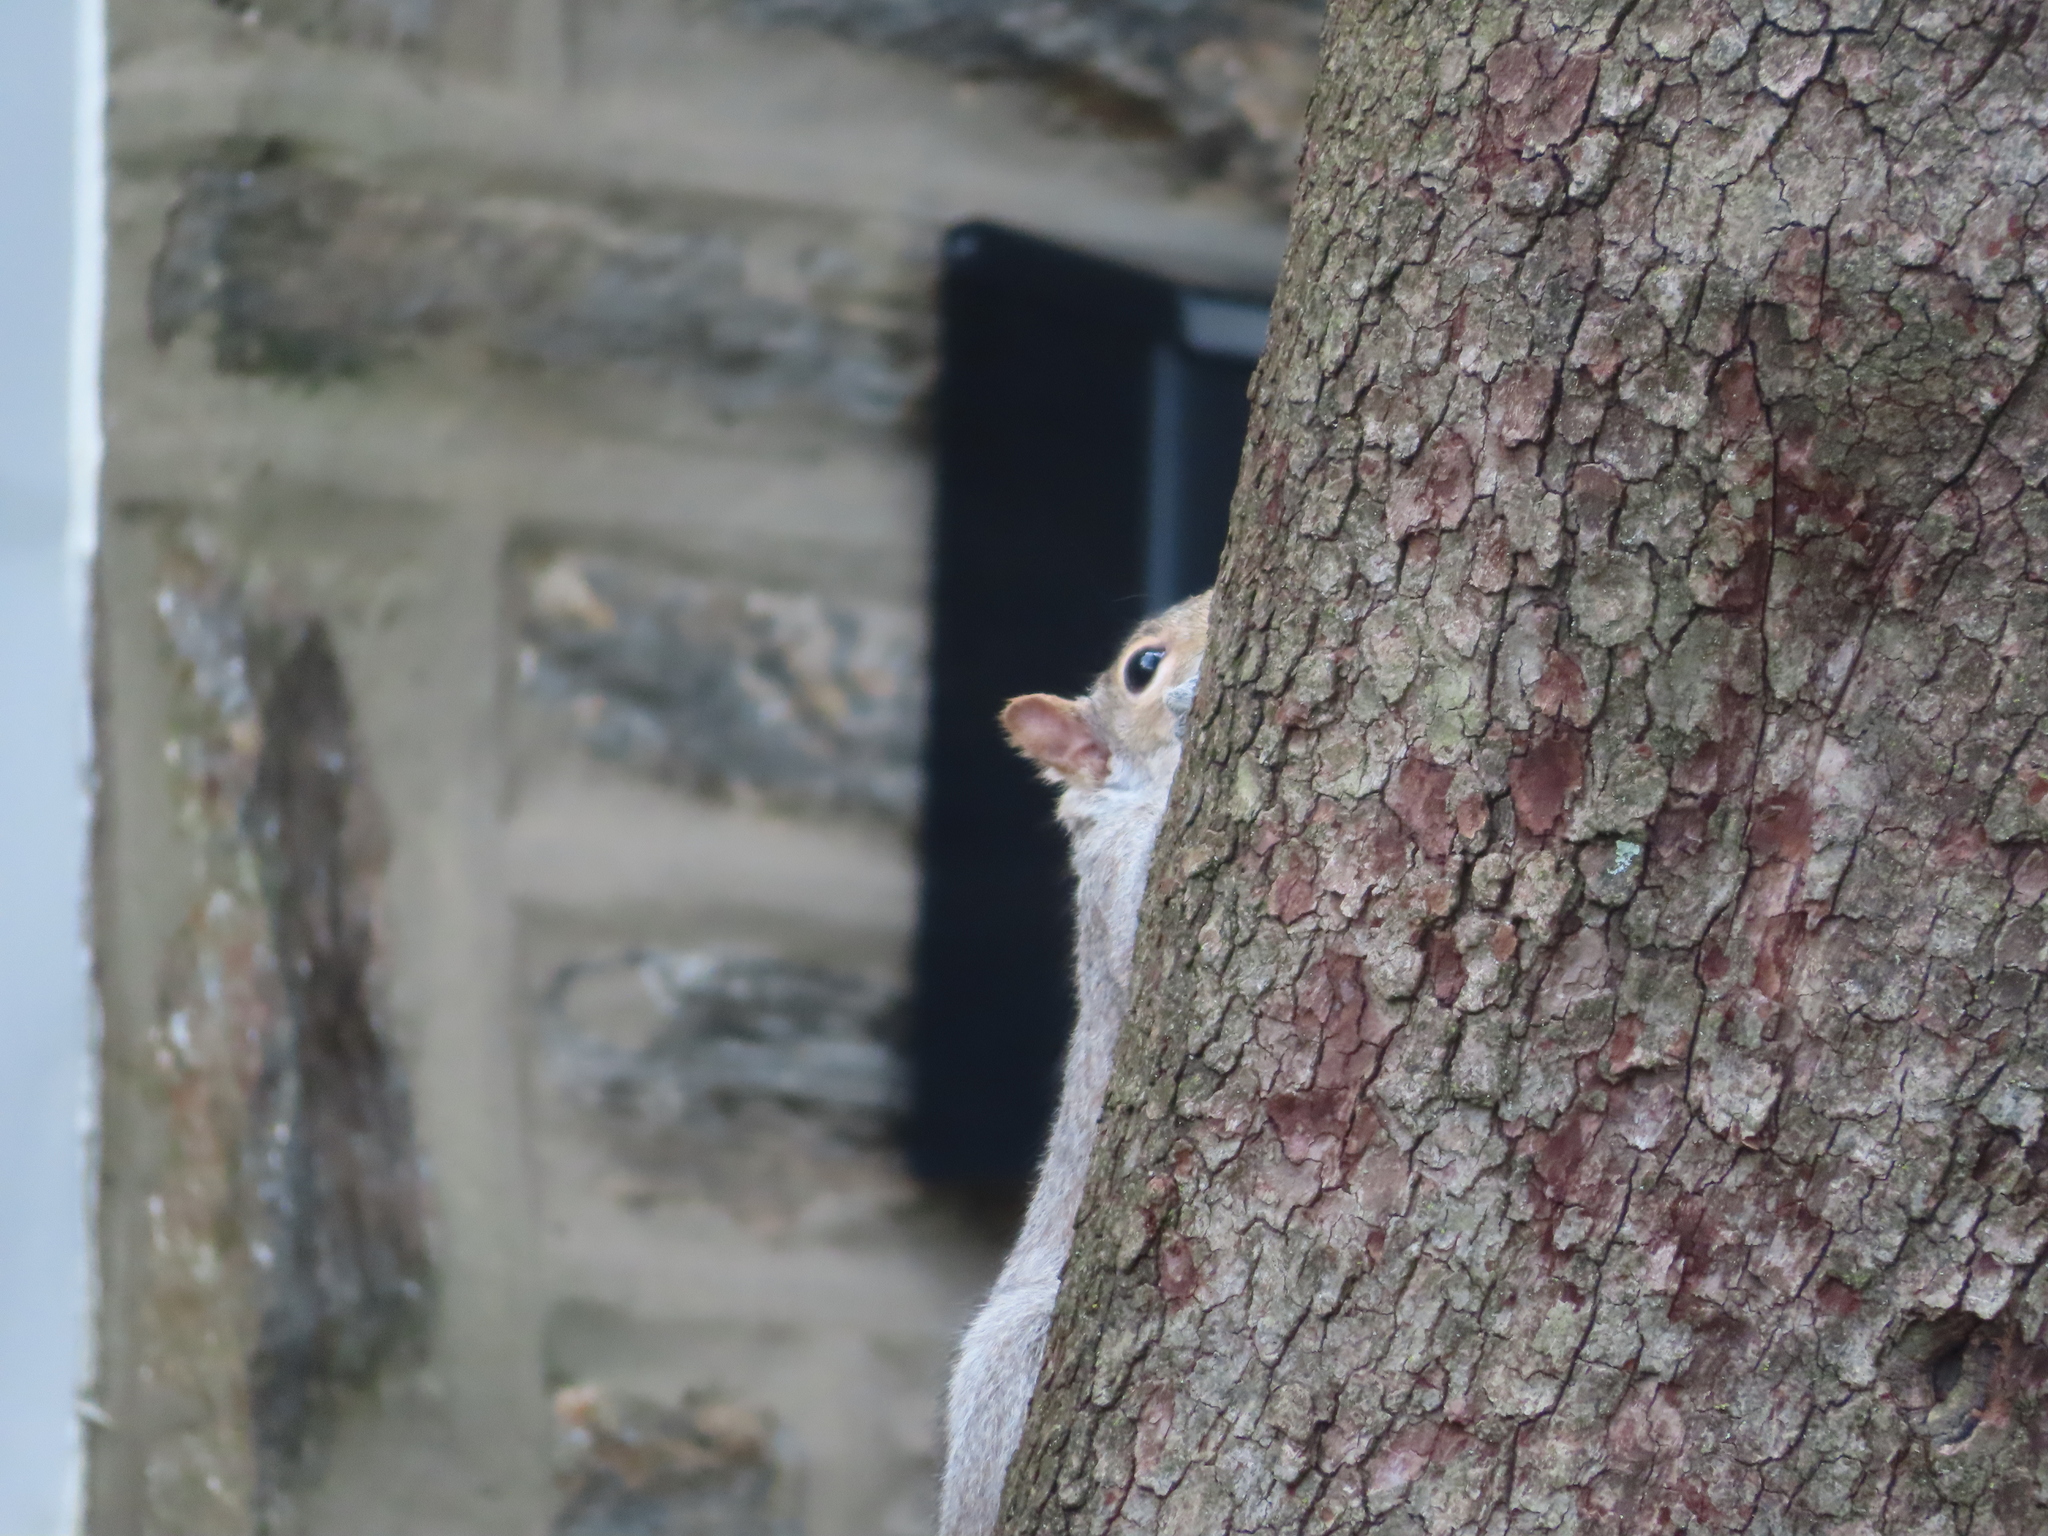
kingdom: Animalia
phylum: Chordata
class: Mammalia
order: Rodentia
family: Sciuridae
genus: Sciurus
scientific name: Sciurus carolinensis
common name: Eastern gray squirrel
